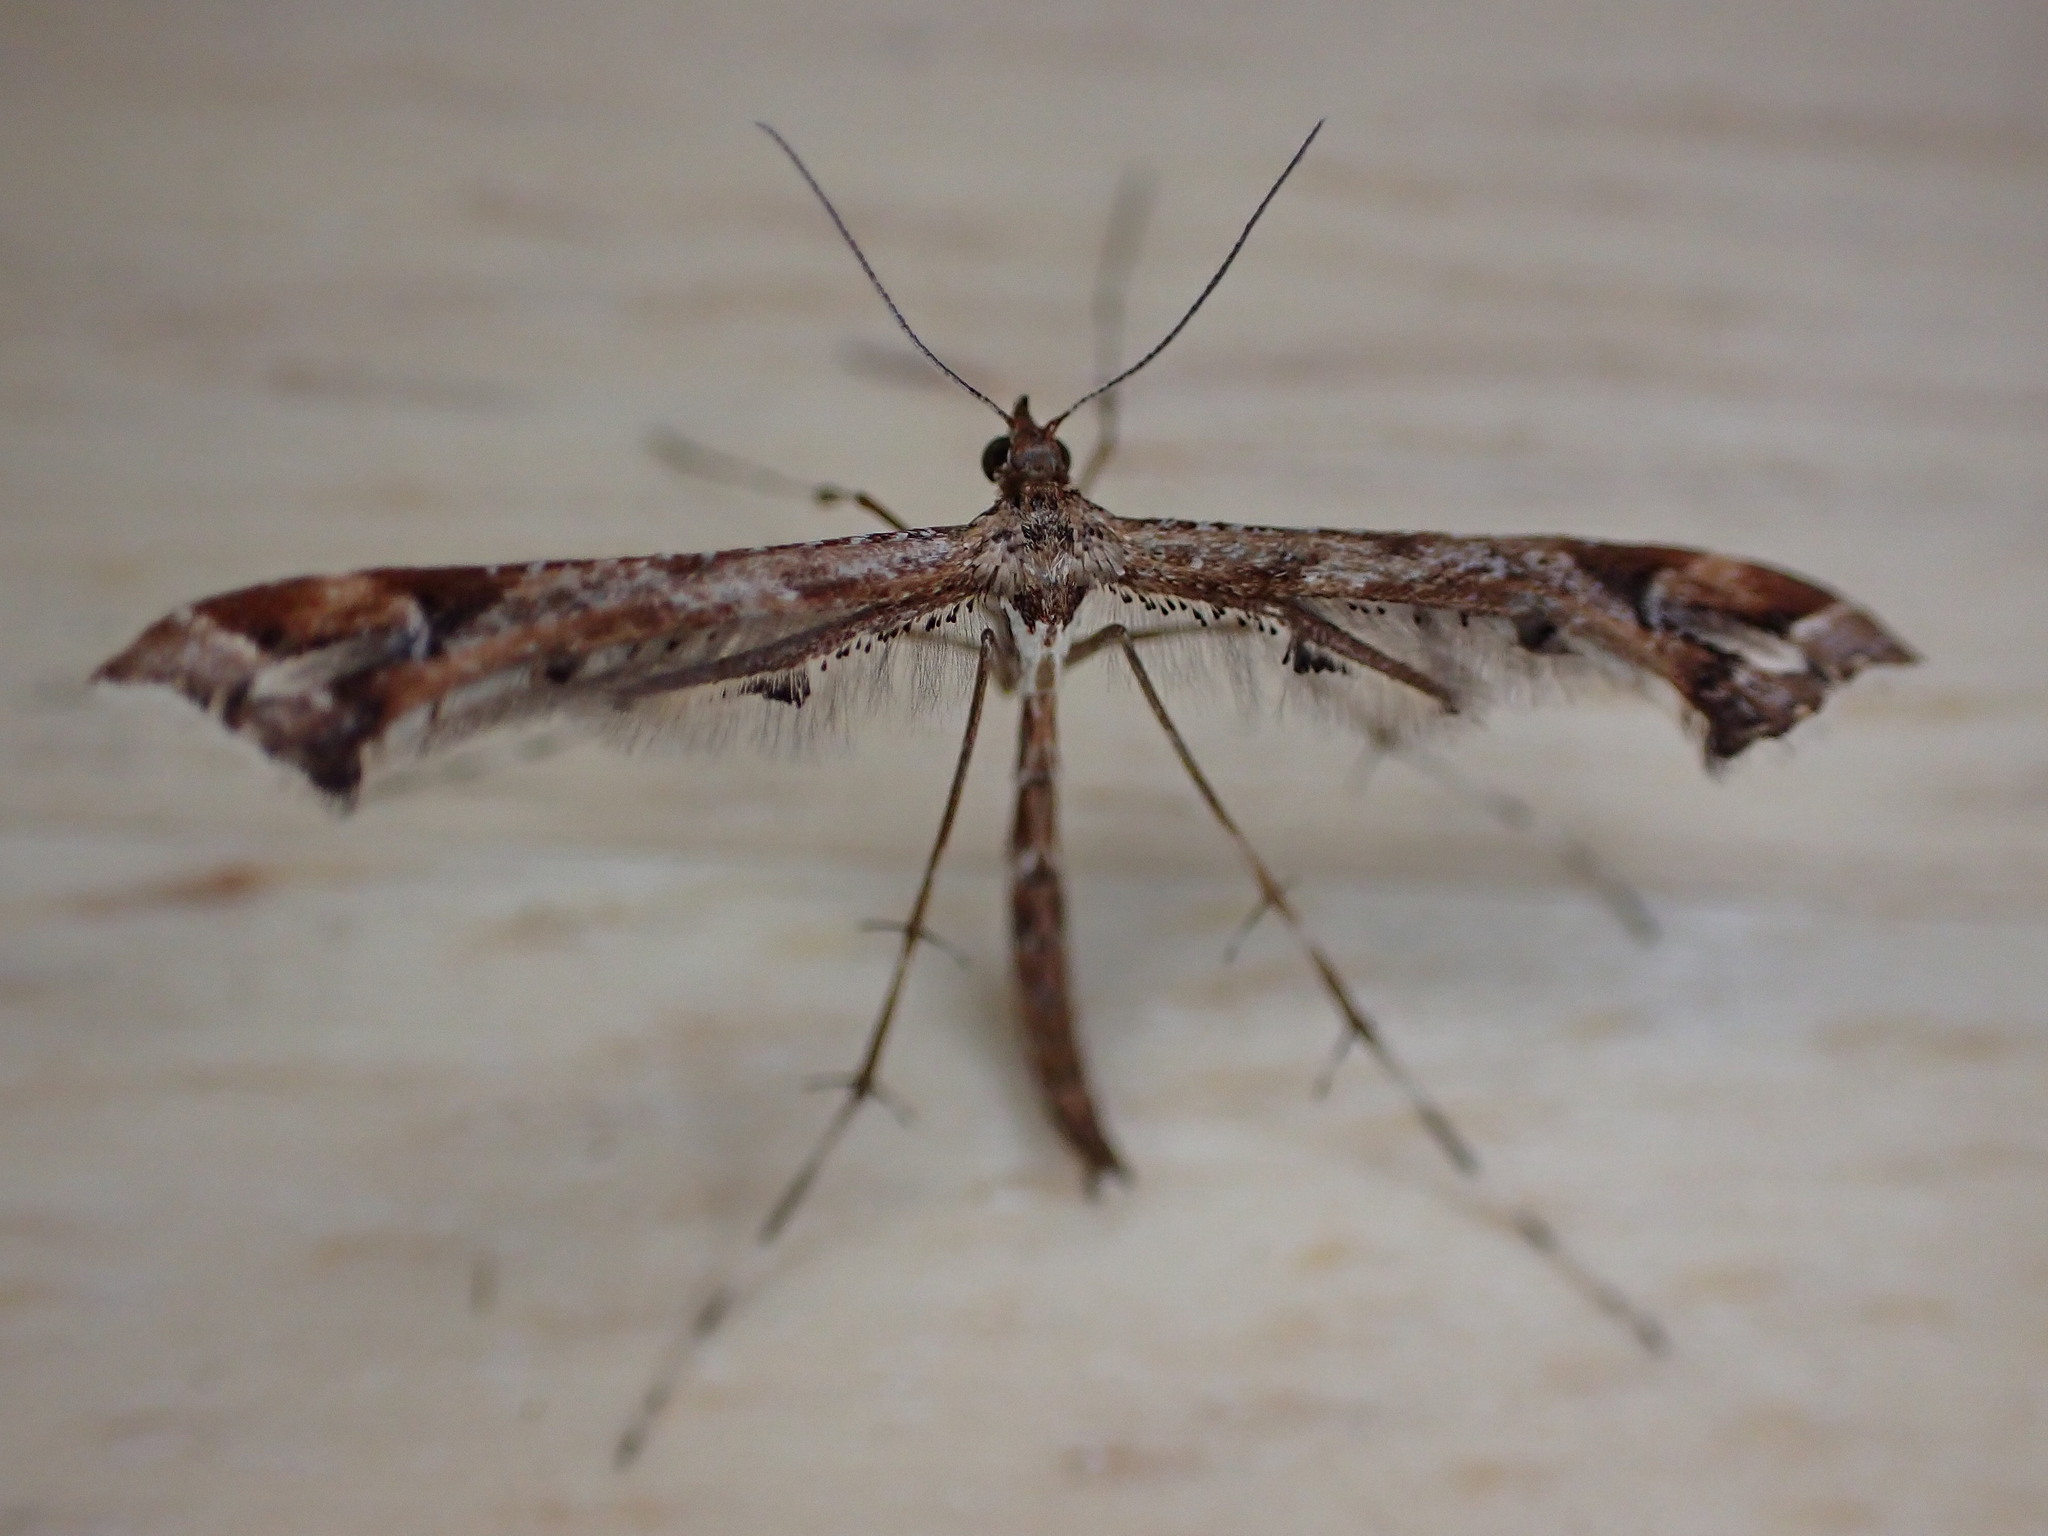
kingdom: Animalia
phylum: Arthropoda
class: Insecta
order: Lepidoptera
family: Pterophoridae
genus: Amblyptilia
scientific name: Amblyptilia acanthadactyla
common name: Beautiful plume
